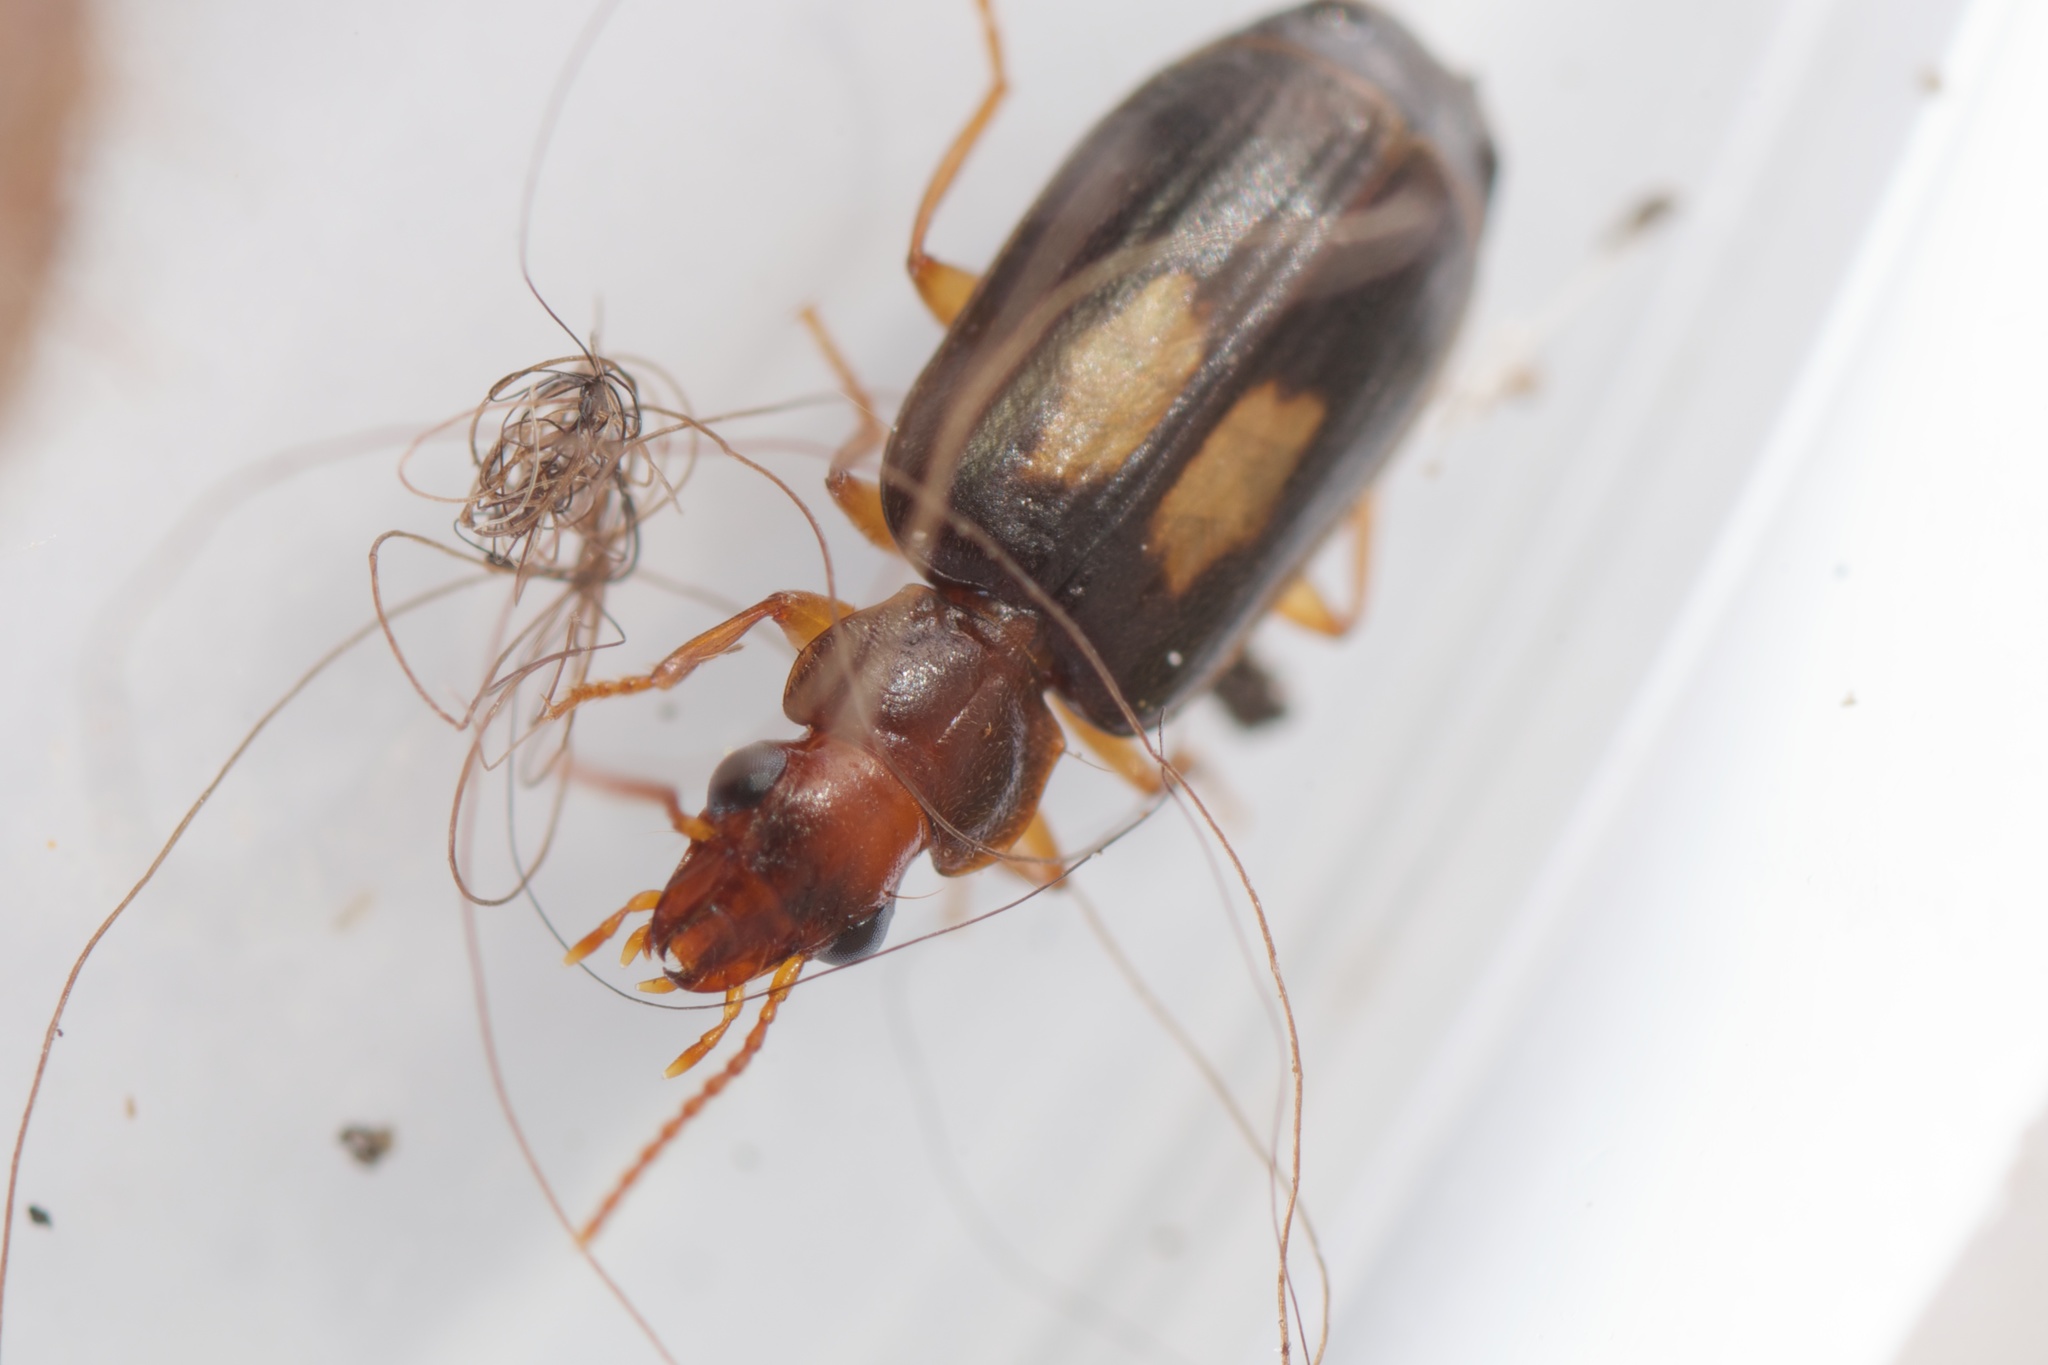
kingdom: Animalia
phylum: Arthropoda
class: Insecta
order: Coleoptera
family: Carabidae
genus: Agonocheila
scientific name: Agonocheila antipodum
